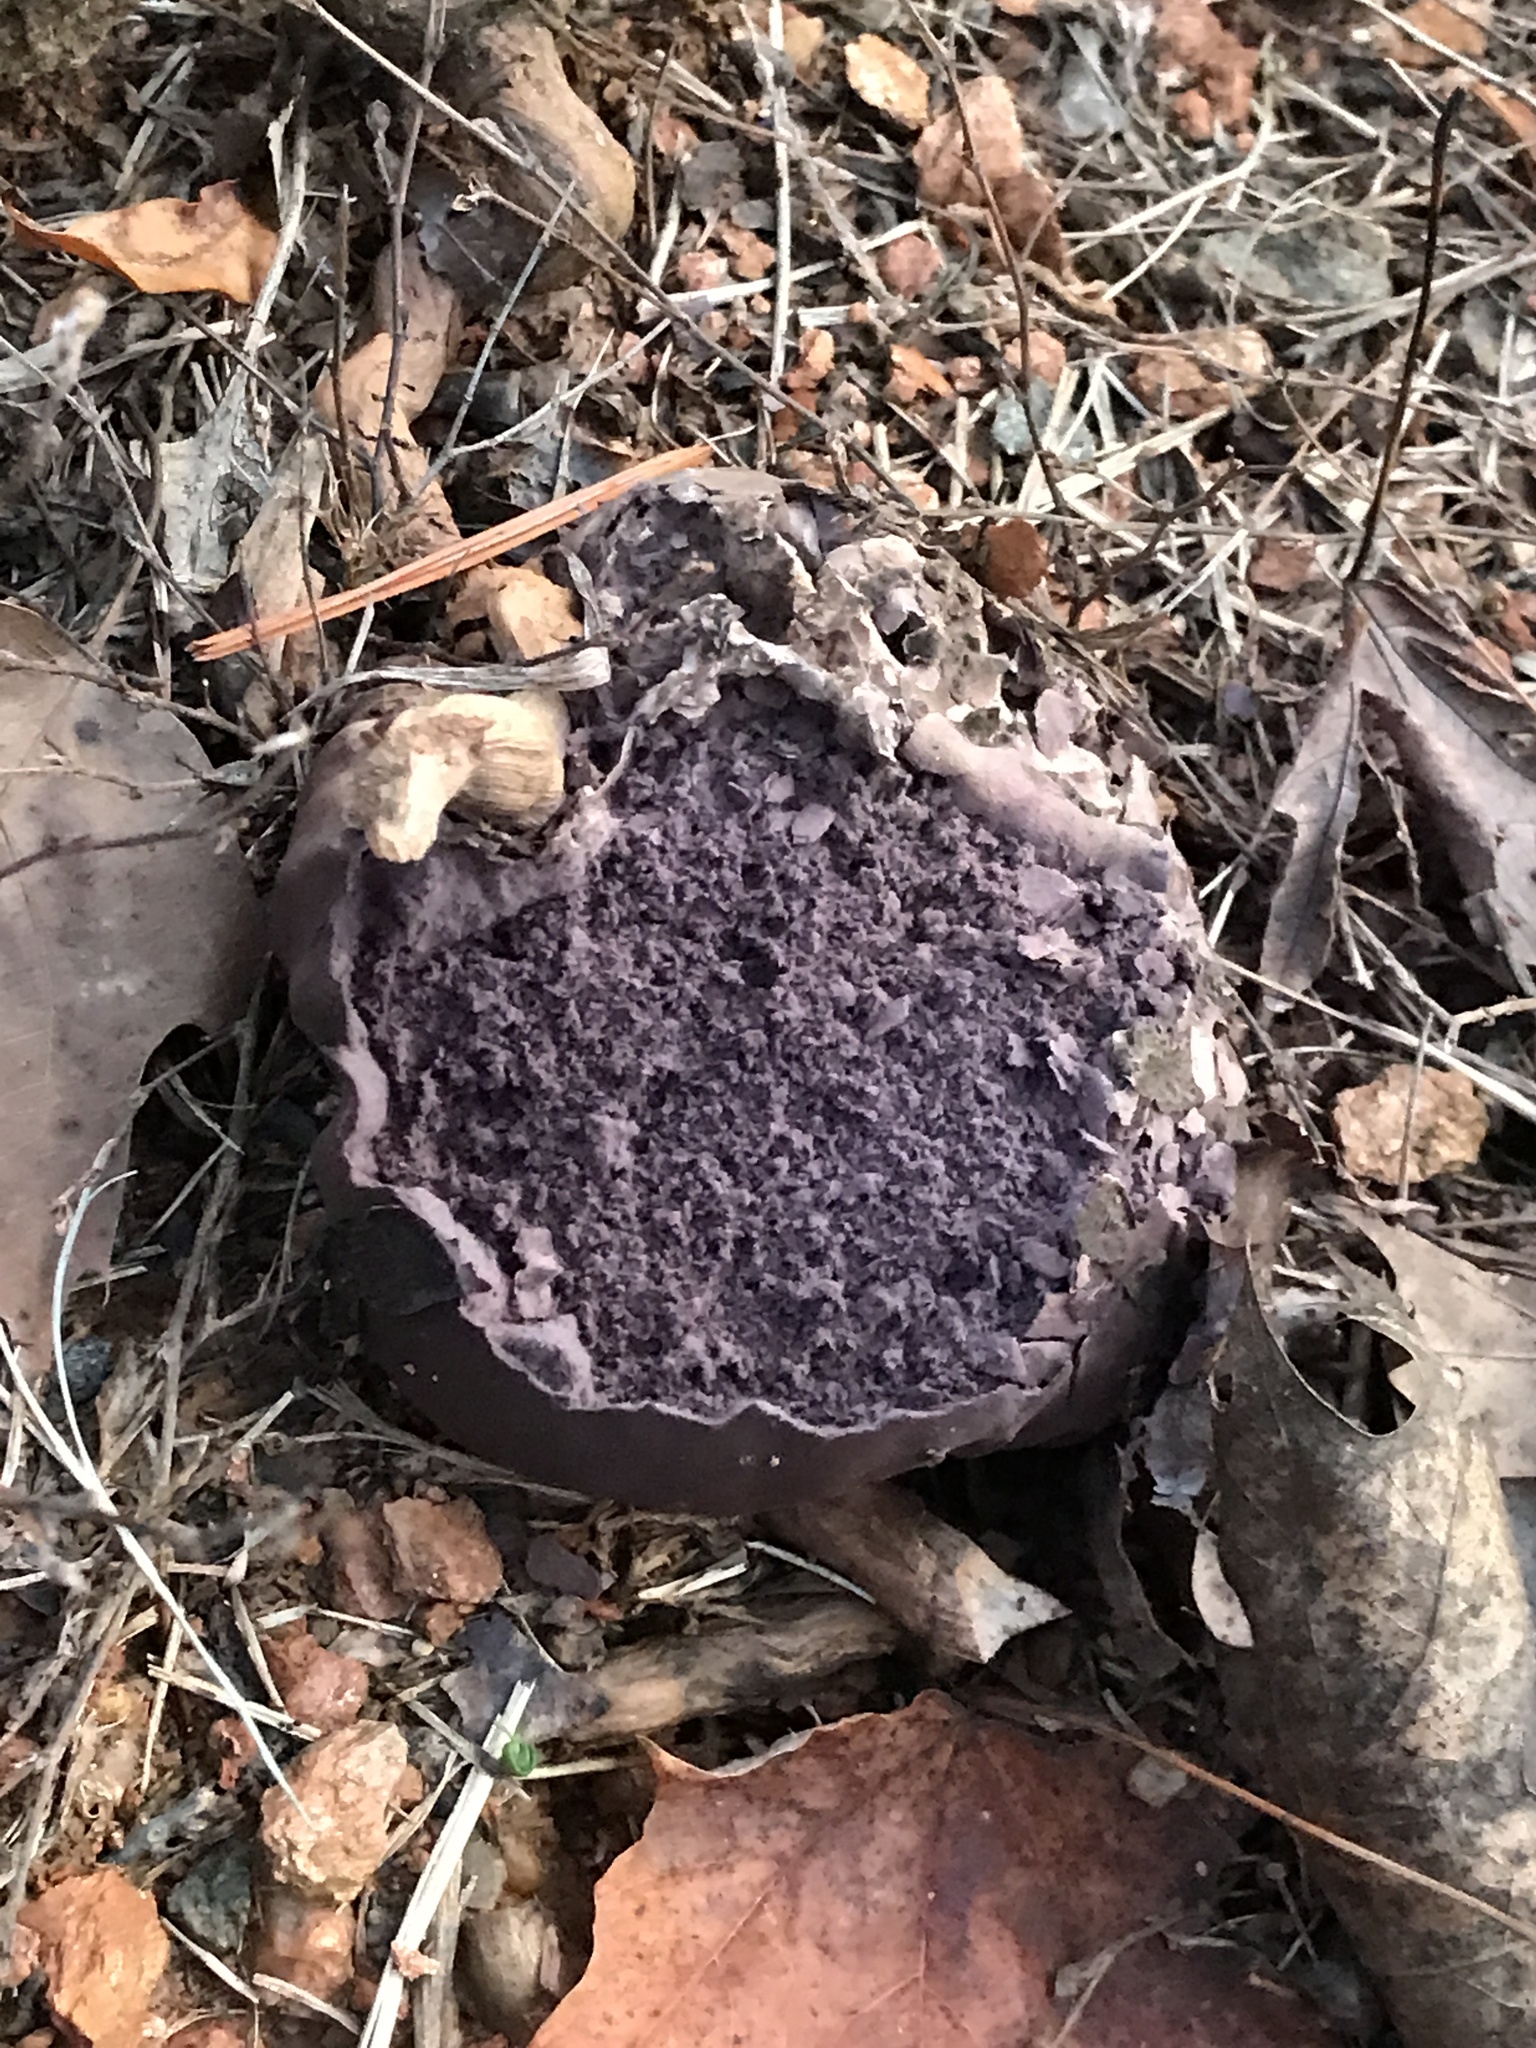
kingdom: Fungi
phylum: Basidiomycota
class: Agaricomycetes
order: Agaricales
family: Lycoperdaceae
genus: Calvatia
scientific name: Calvatia cyathiformis
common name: Purple-spored puffball
